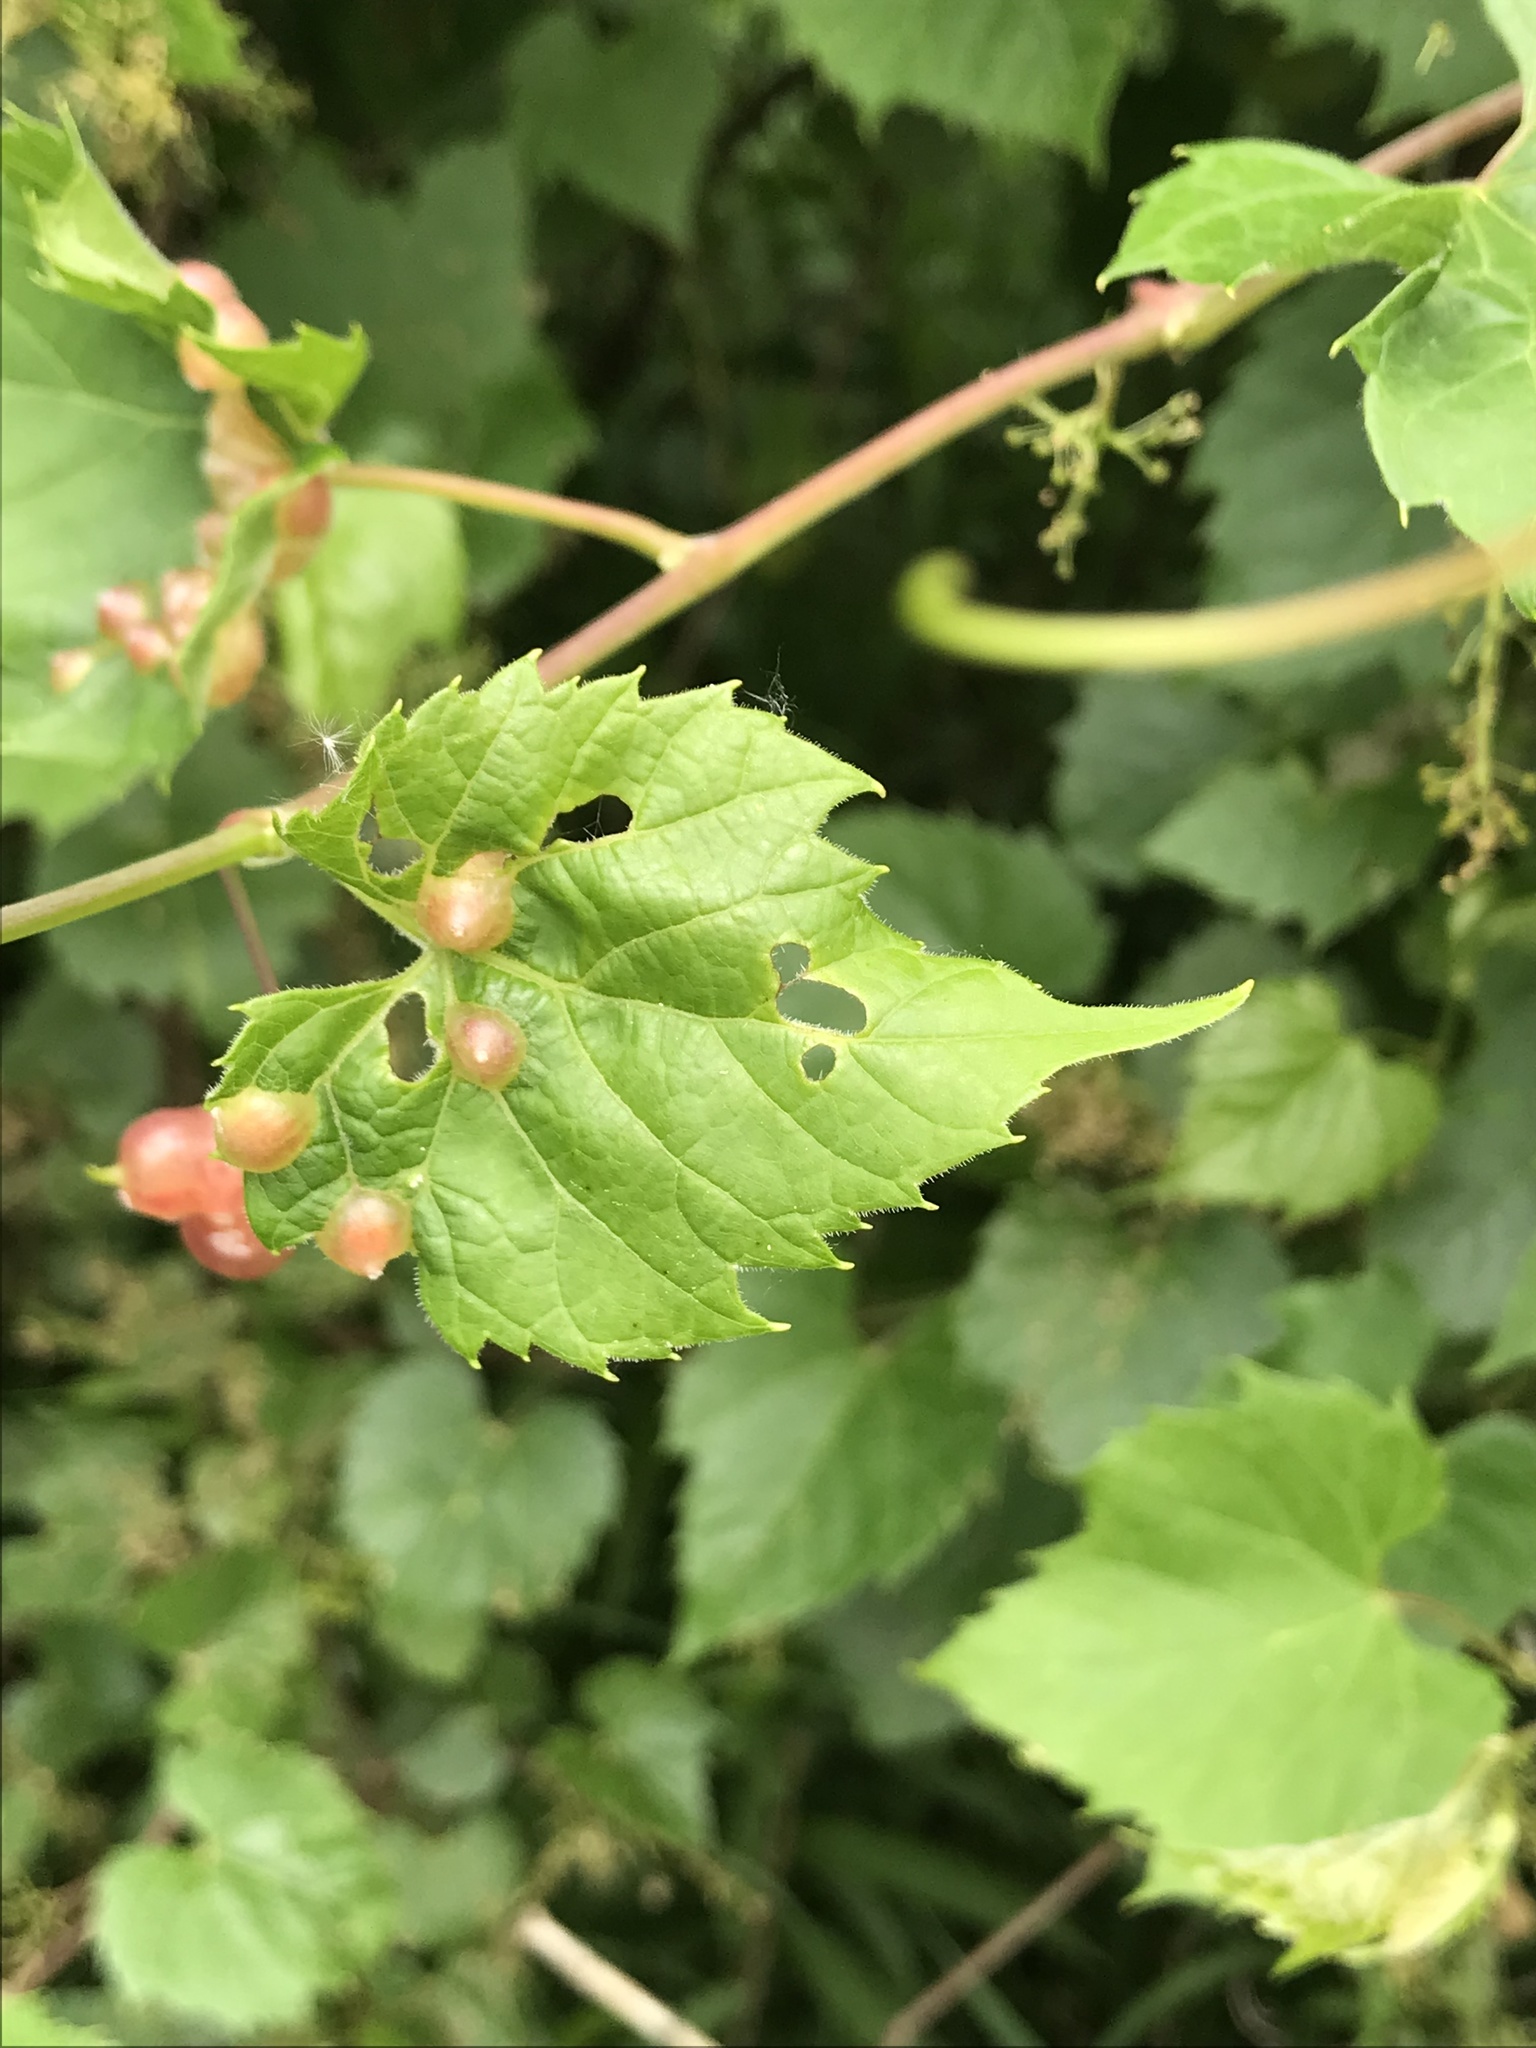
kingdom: Animalia
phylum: Arthropoda
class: Insecta
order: Diptera
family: Cecidomyiidae
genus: Vitisiella
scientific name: Vitisiella brevicauda
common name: Grape tumid gallmaker midge
